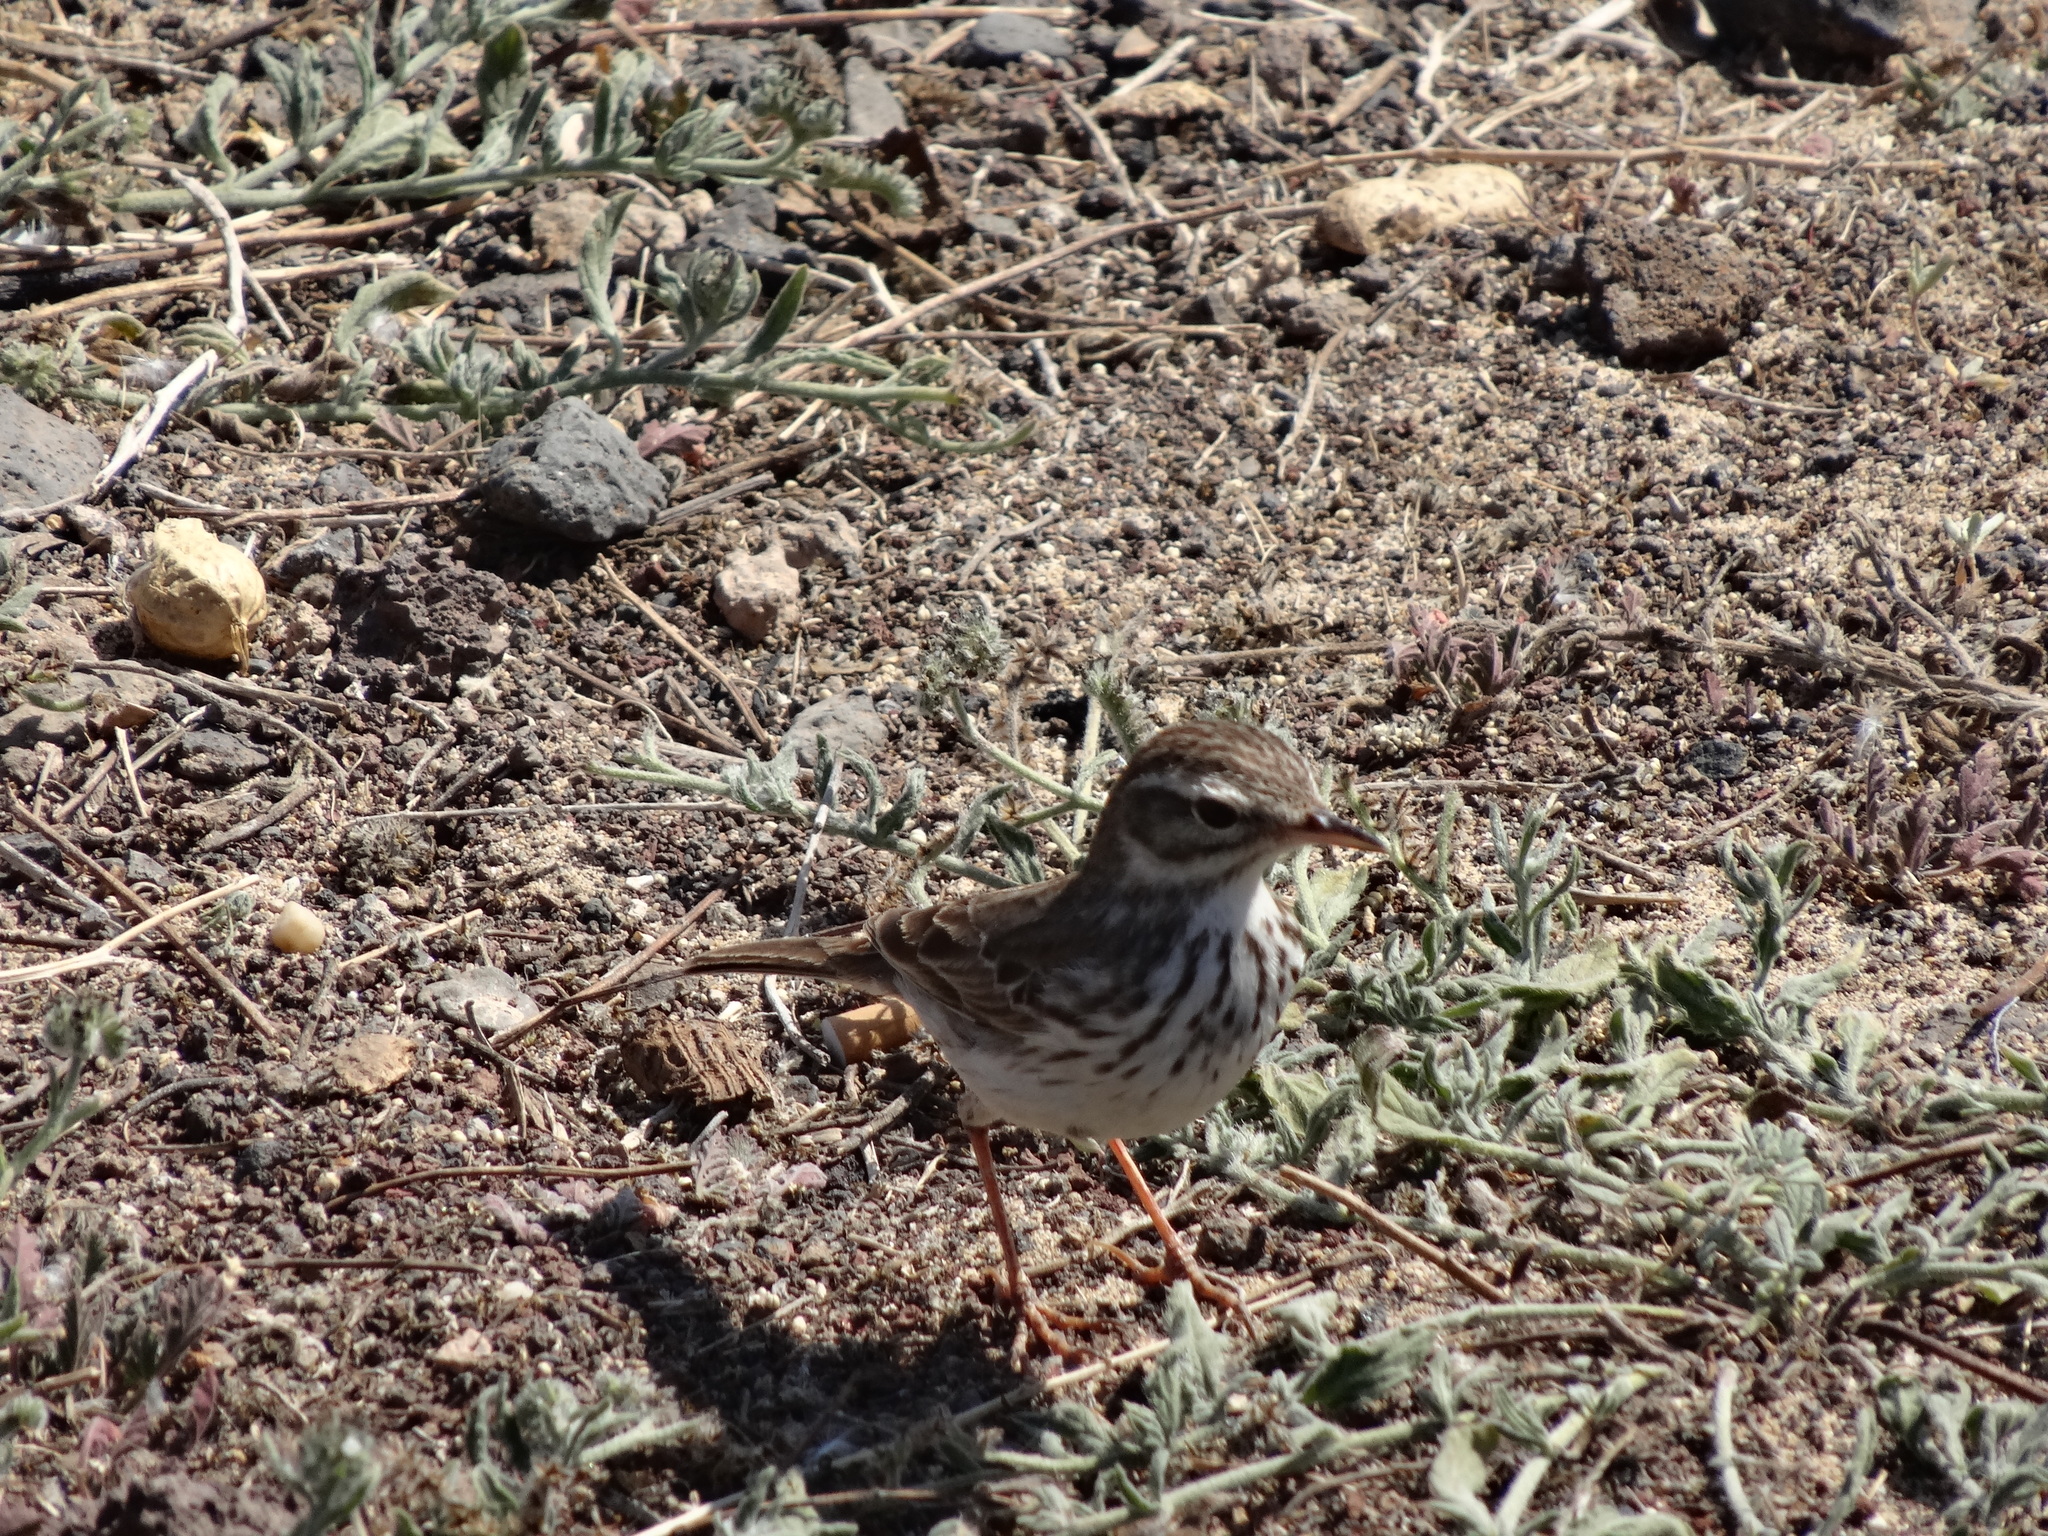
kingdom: Animalia
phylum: Chordata
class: Aves
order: Passeriformes
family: Motacillidae
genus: Anthus
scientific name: Anthus berthelotii
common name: Berthelot's pipit
